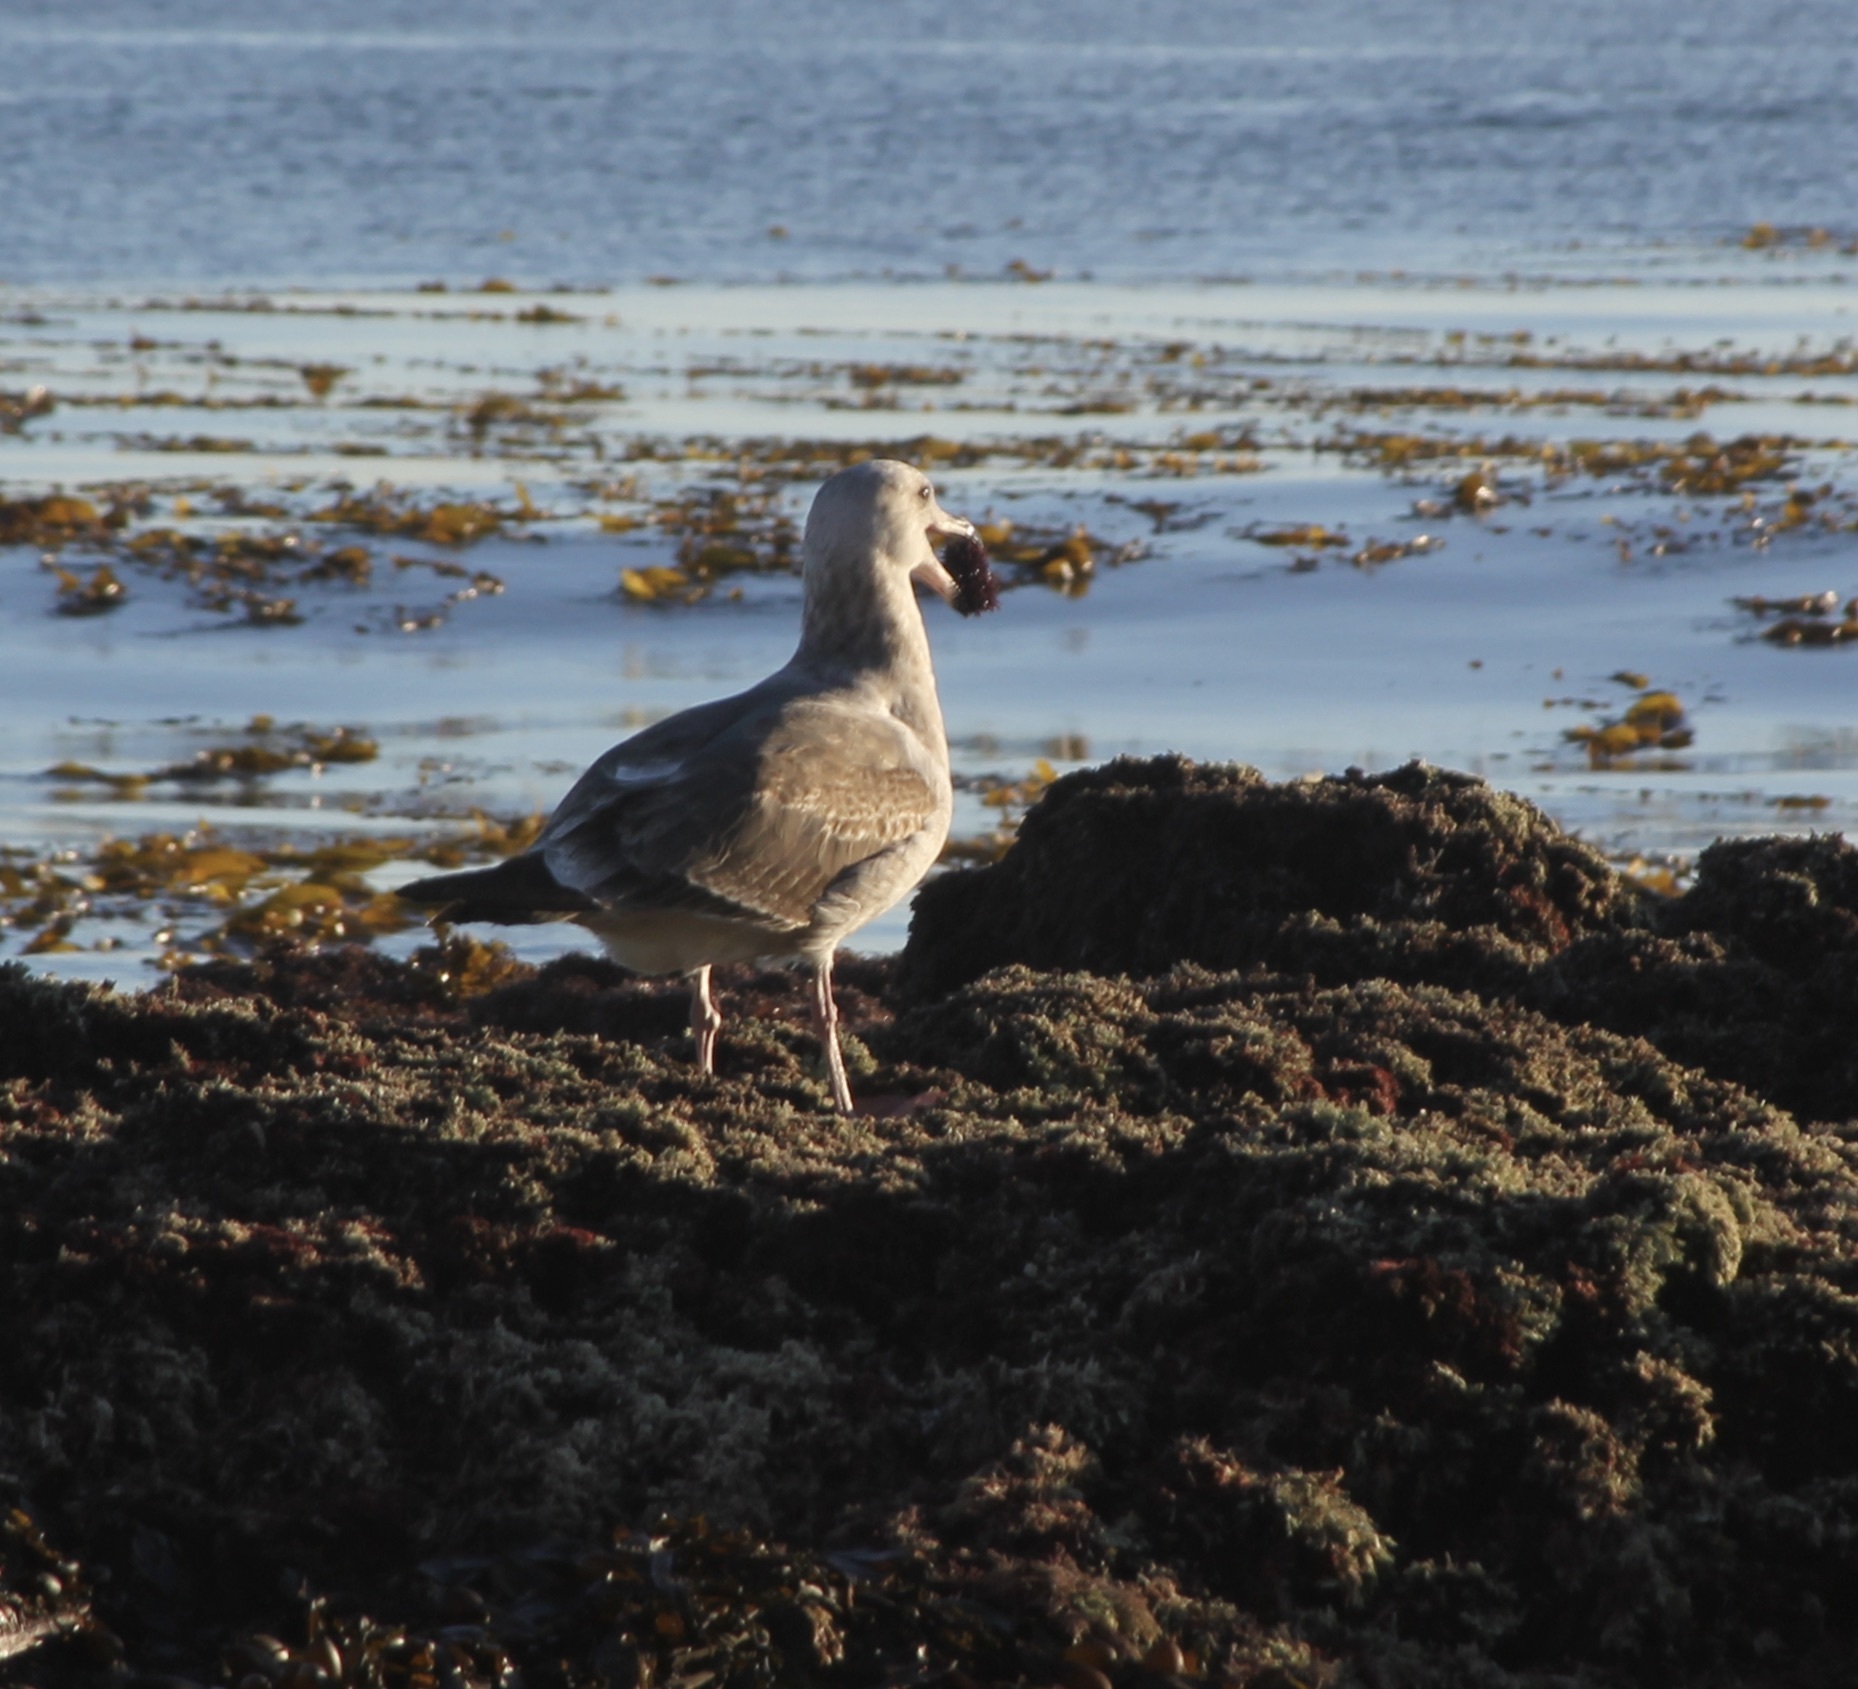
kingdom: Animalia
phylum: Chordata
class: Aves
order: Charadriiformes
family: Laridae
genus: Larus
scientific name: Larus occidentalis
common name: Western gull
